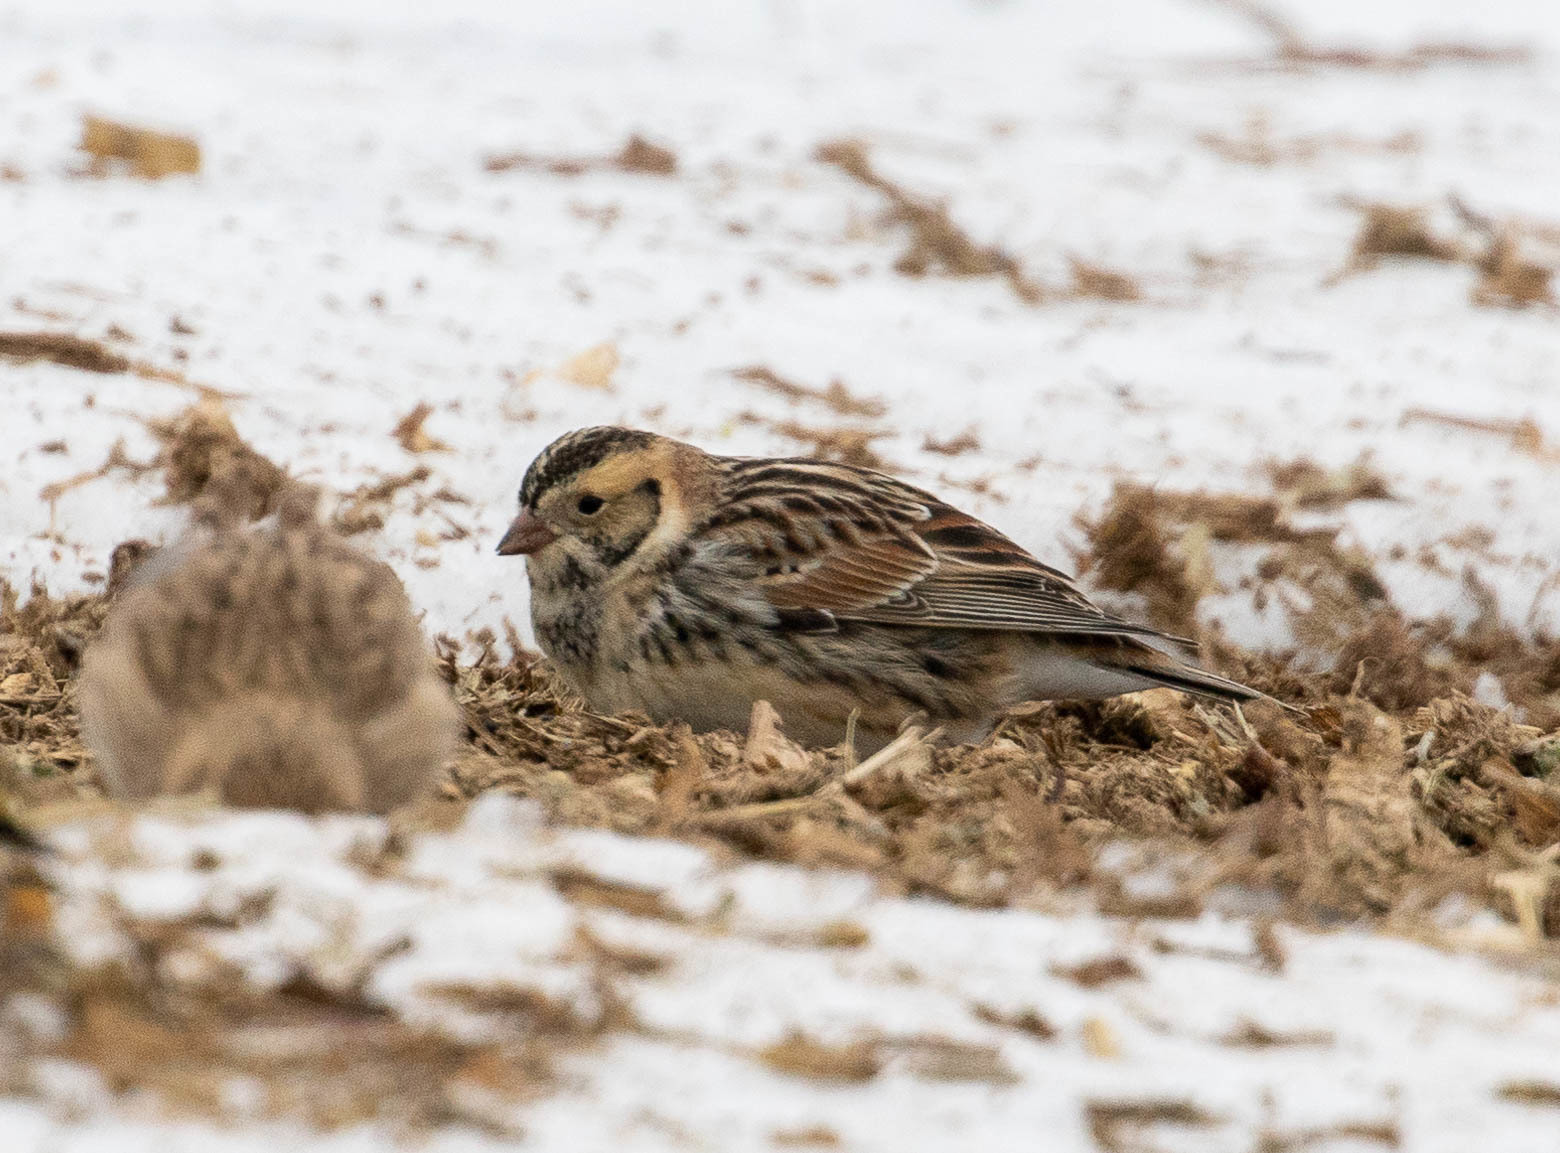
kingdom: Animalia
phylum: Chordata
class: Aves
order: Passeriformes
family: Calcariidae
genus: Calcarius
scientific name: Calcarius lapponicus
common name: Lapland longspur
